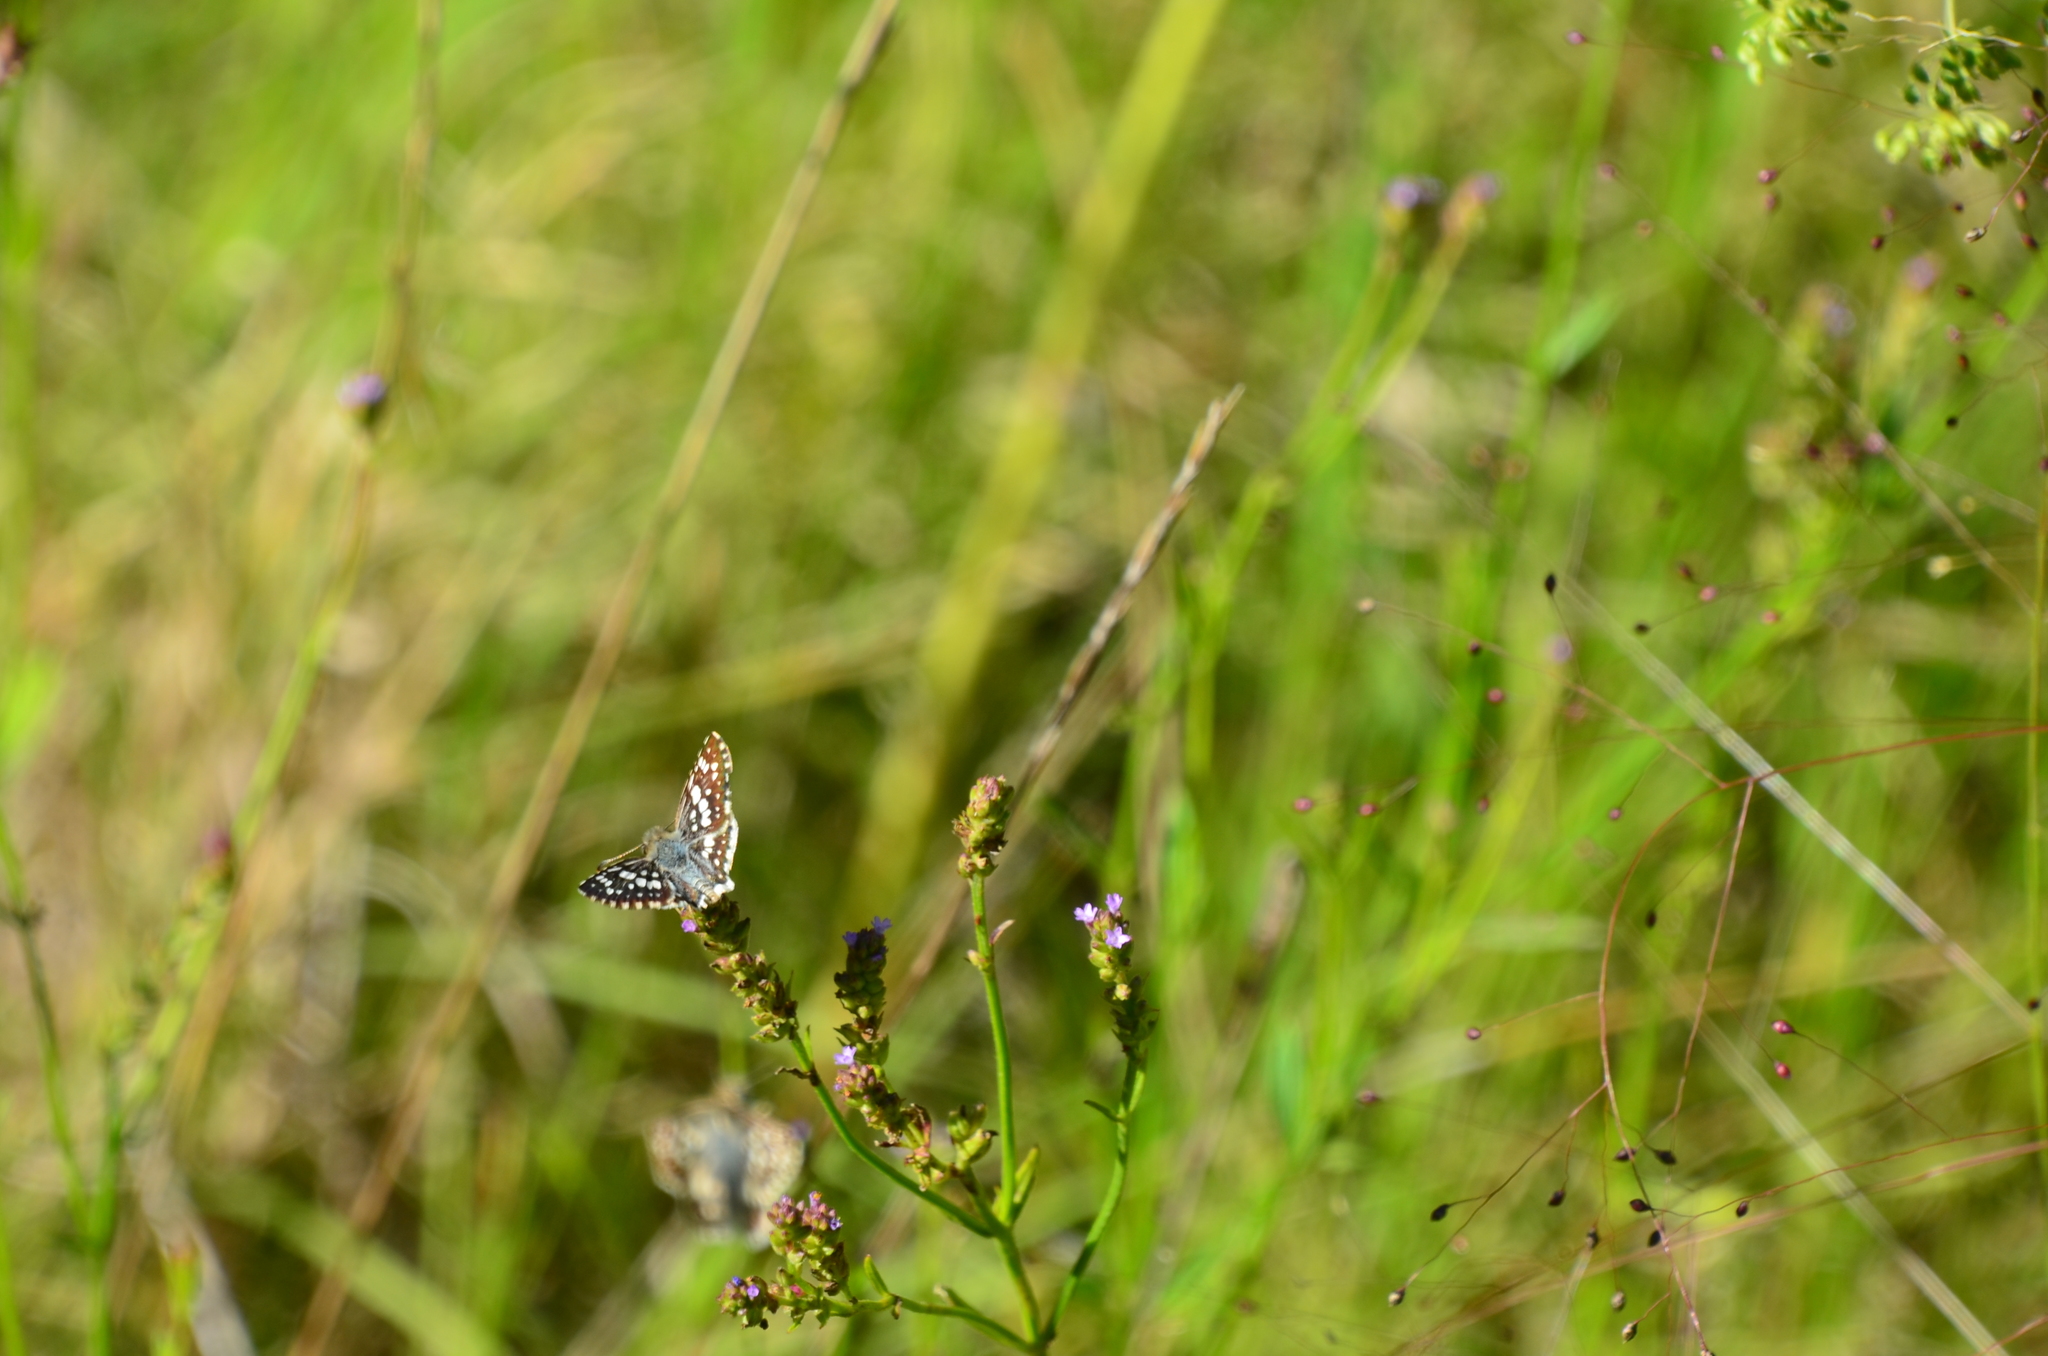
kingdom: Animalia
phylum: Arthropoda
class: Insecta
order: Lepidoptera
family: Hesperiidae
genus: Burnsius
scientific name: Burnsius orcynoides
